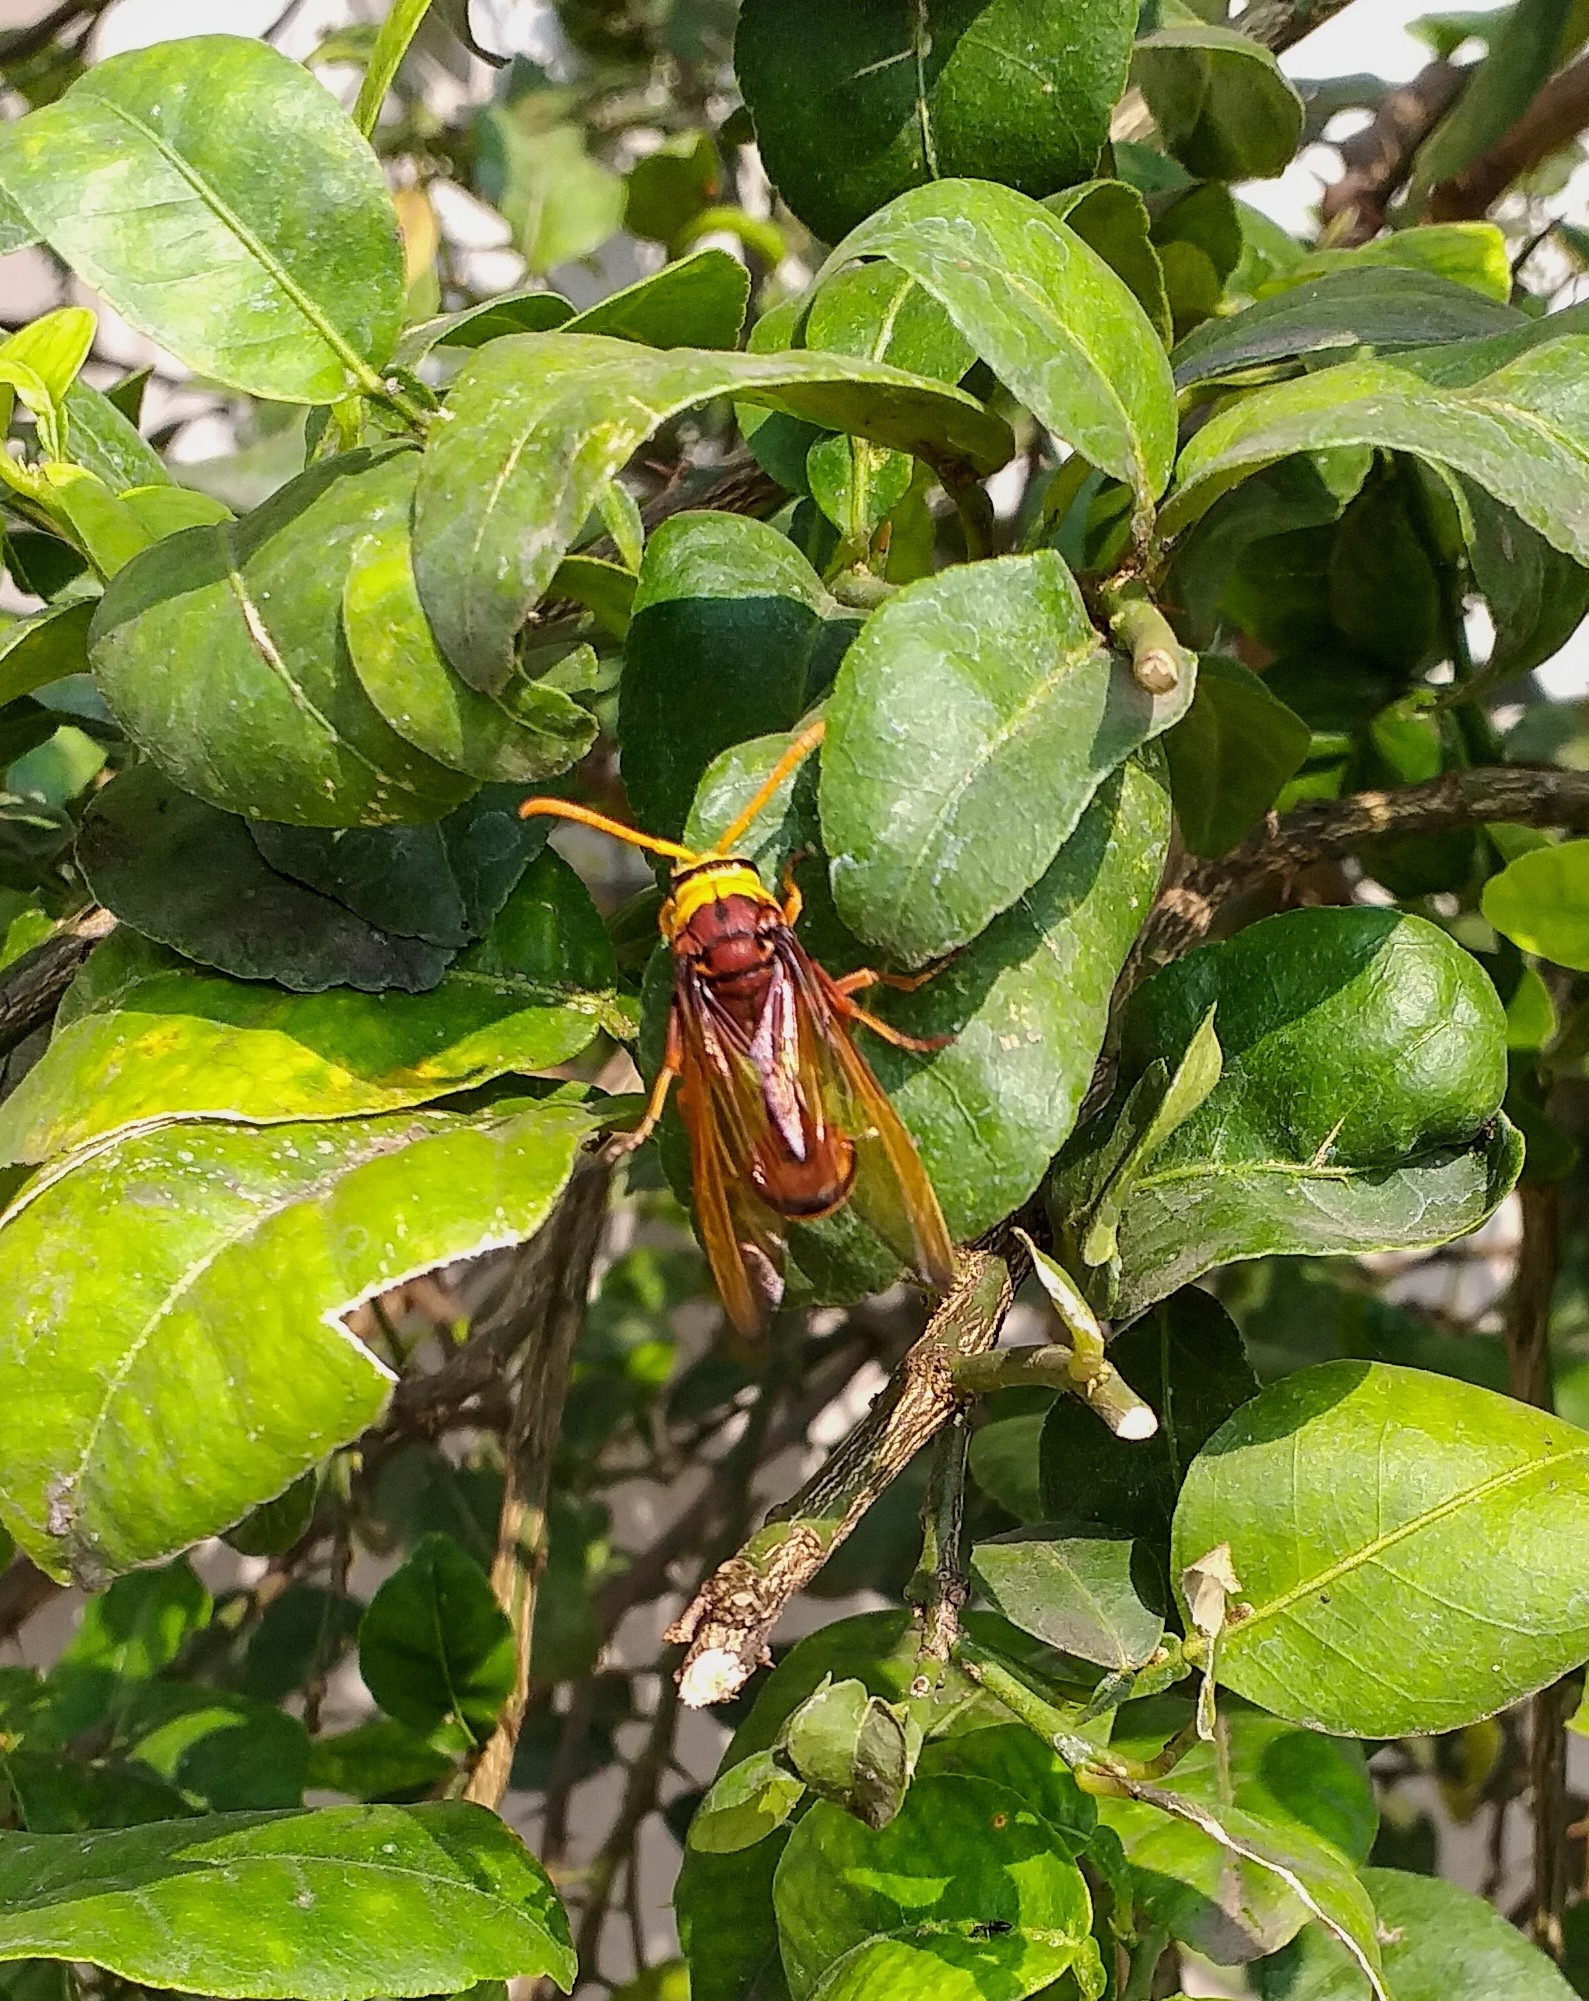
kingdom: Animalia
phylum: Arthropoda
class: Insecta
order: Hymenoptera
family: Eumenidae
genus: Delta
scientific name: Delta pyriforme
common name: Wasp
